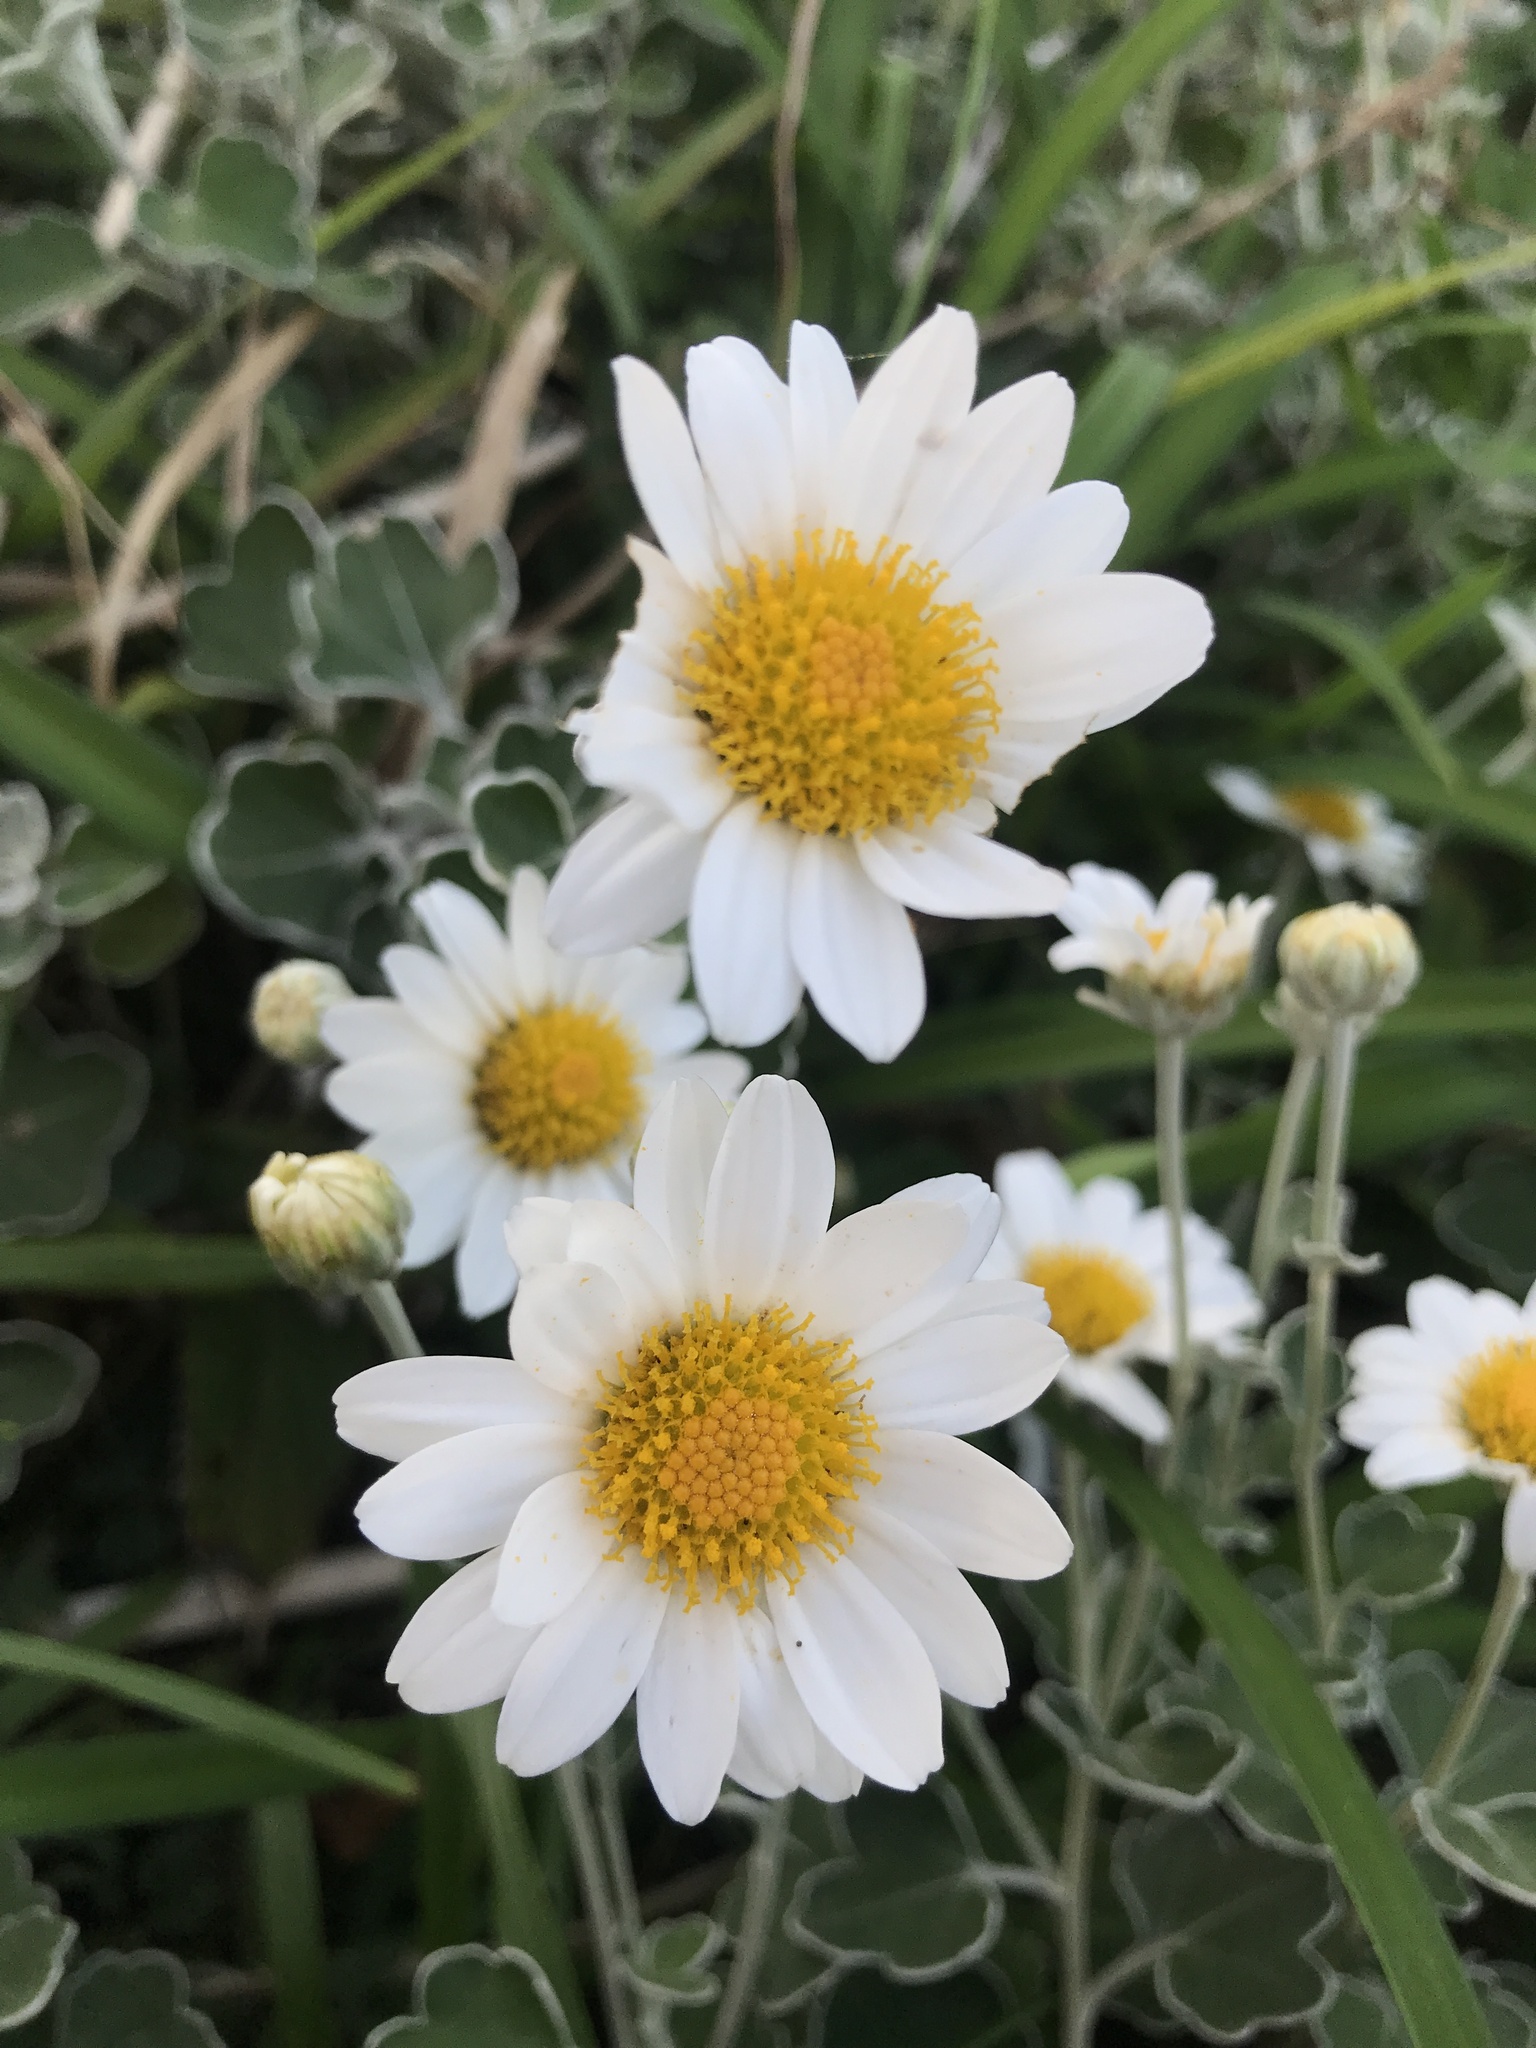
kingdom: Plantae
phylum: Tracheophyta
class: Magnoliopsida
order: Asterales
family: Asteraceae
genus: Chrysanthemum
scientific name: Chrysanthemum ornatum
